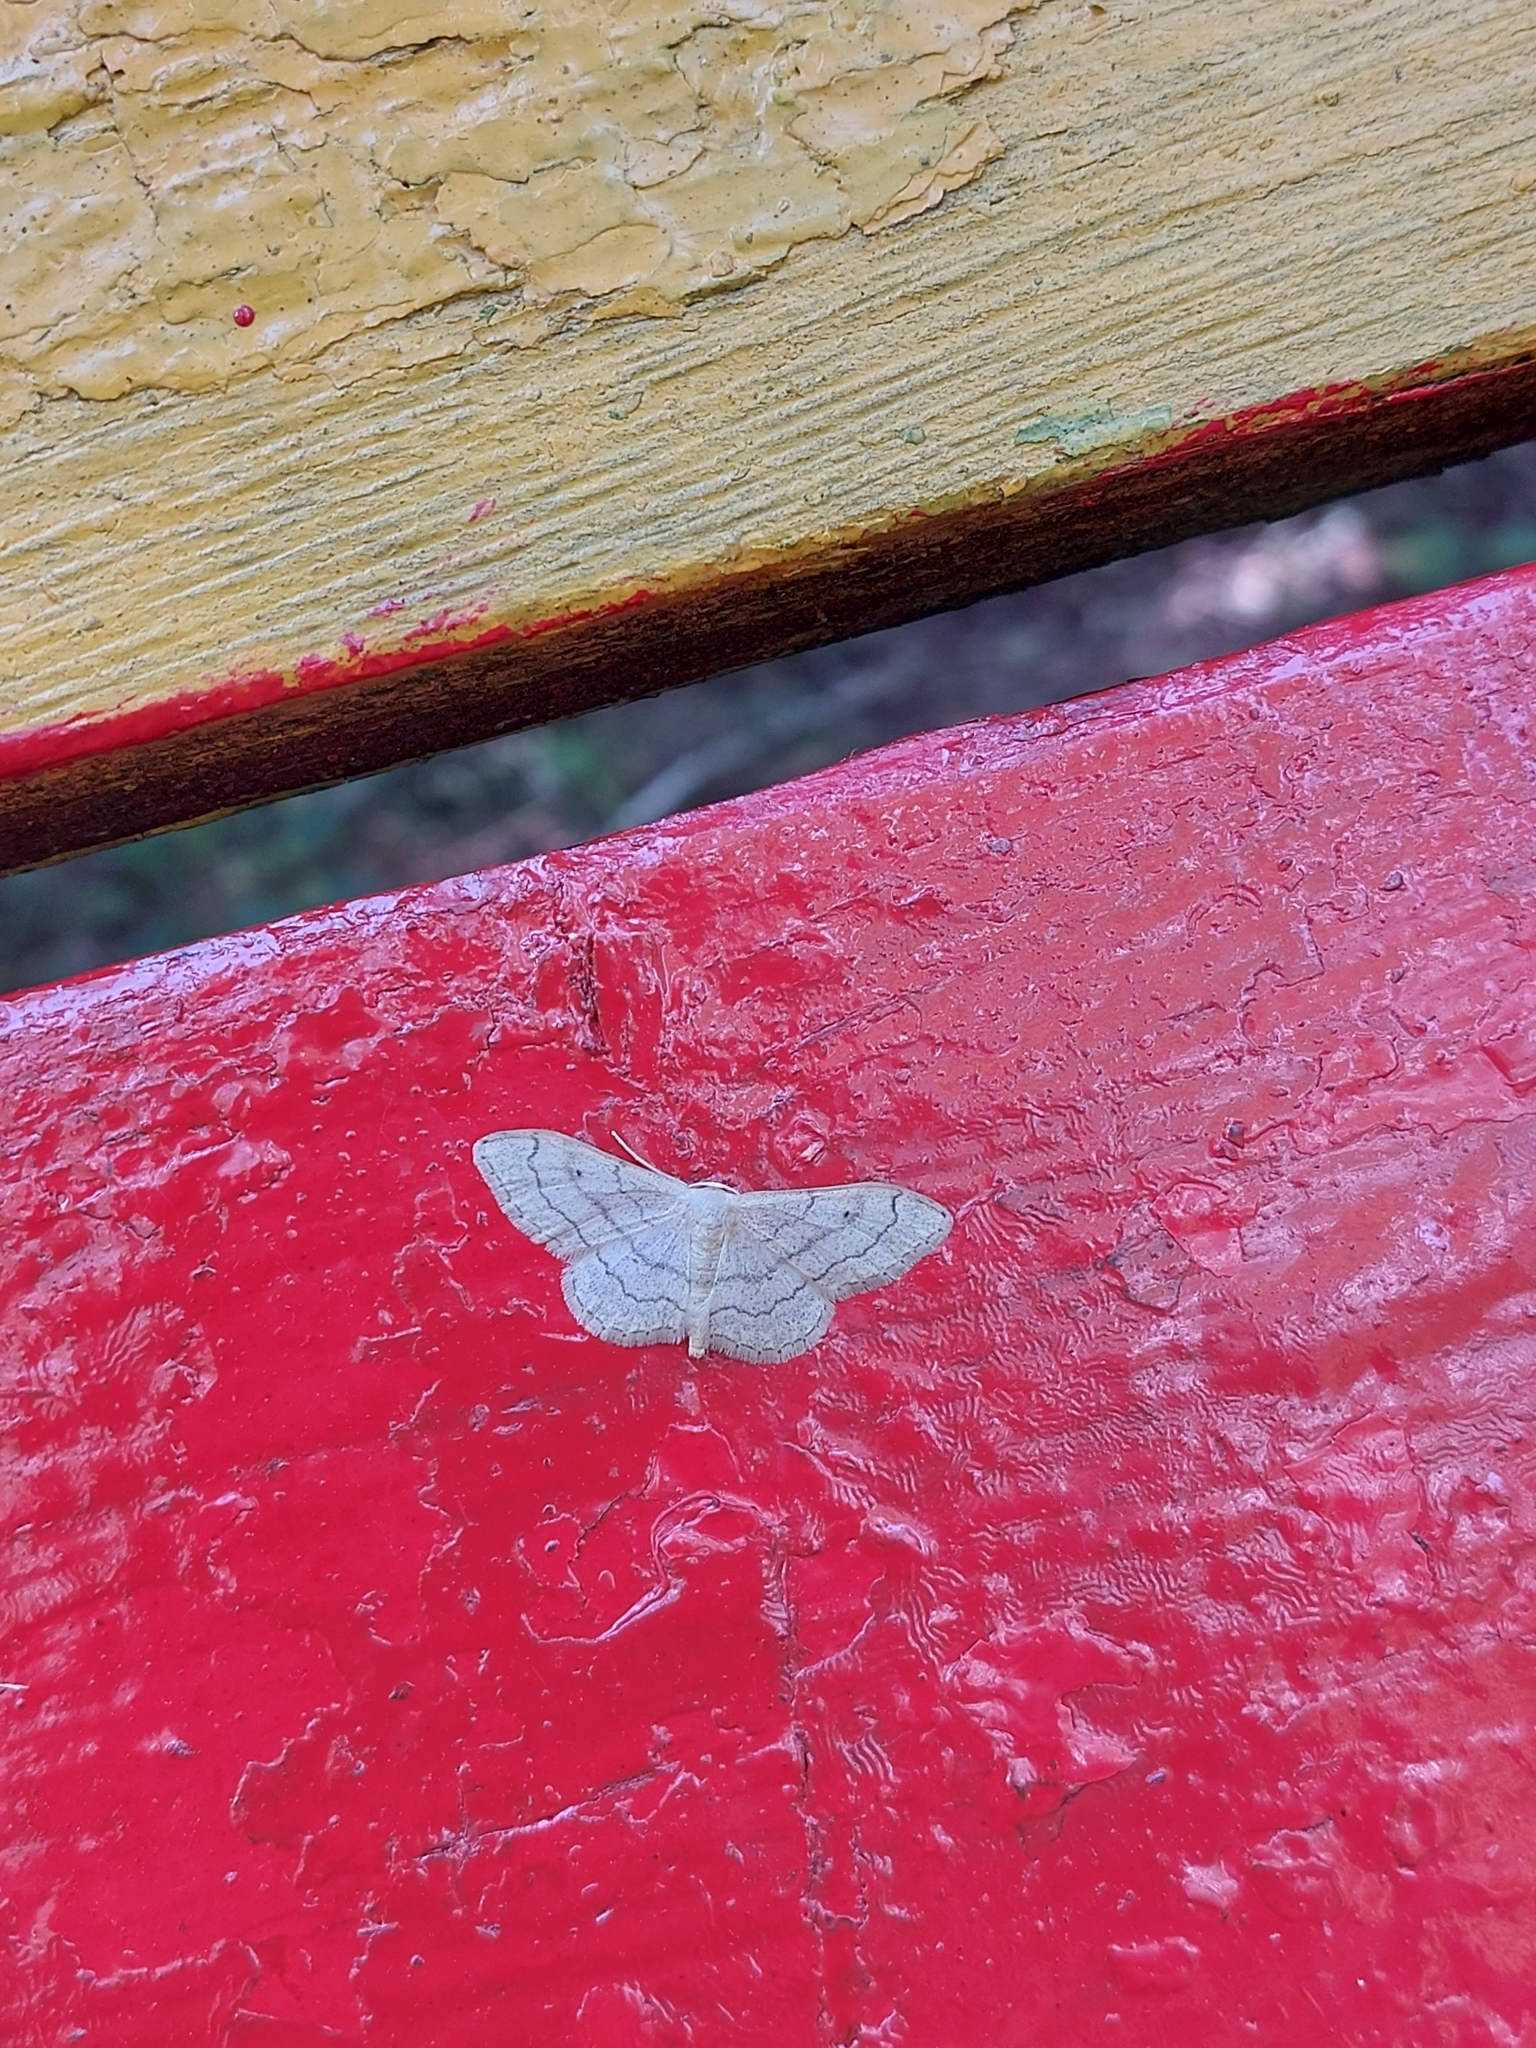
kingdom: Animalia
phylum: Arthropoda
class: Insecta
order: Lepidoptera
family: Geometridae
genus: Idaea
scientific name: Idaea aversata
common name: Riband wave
